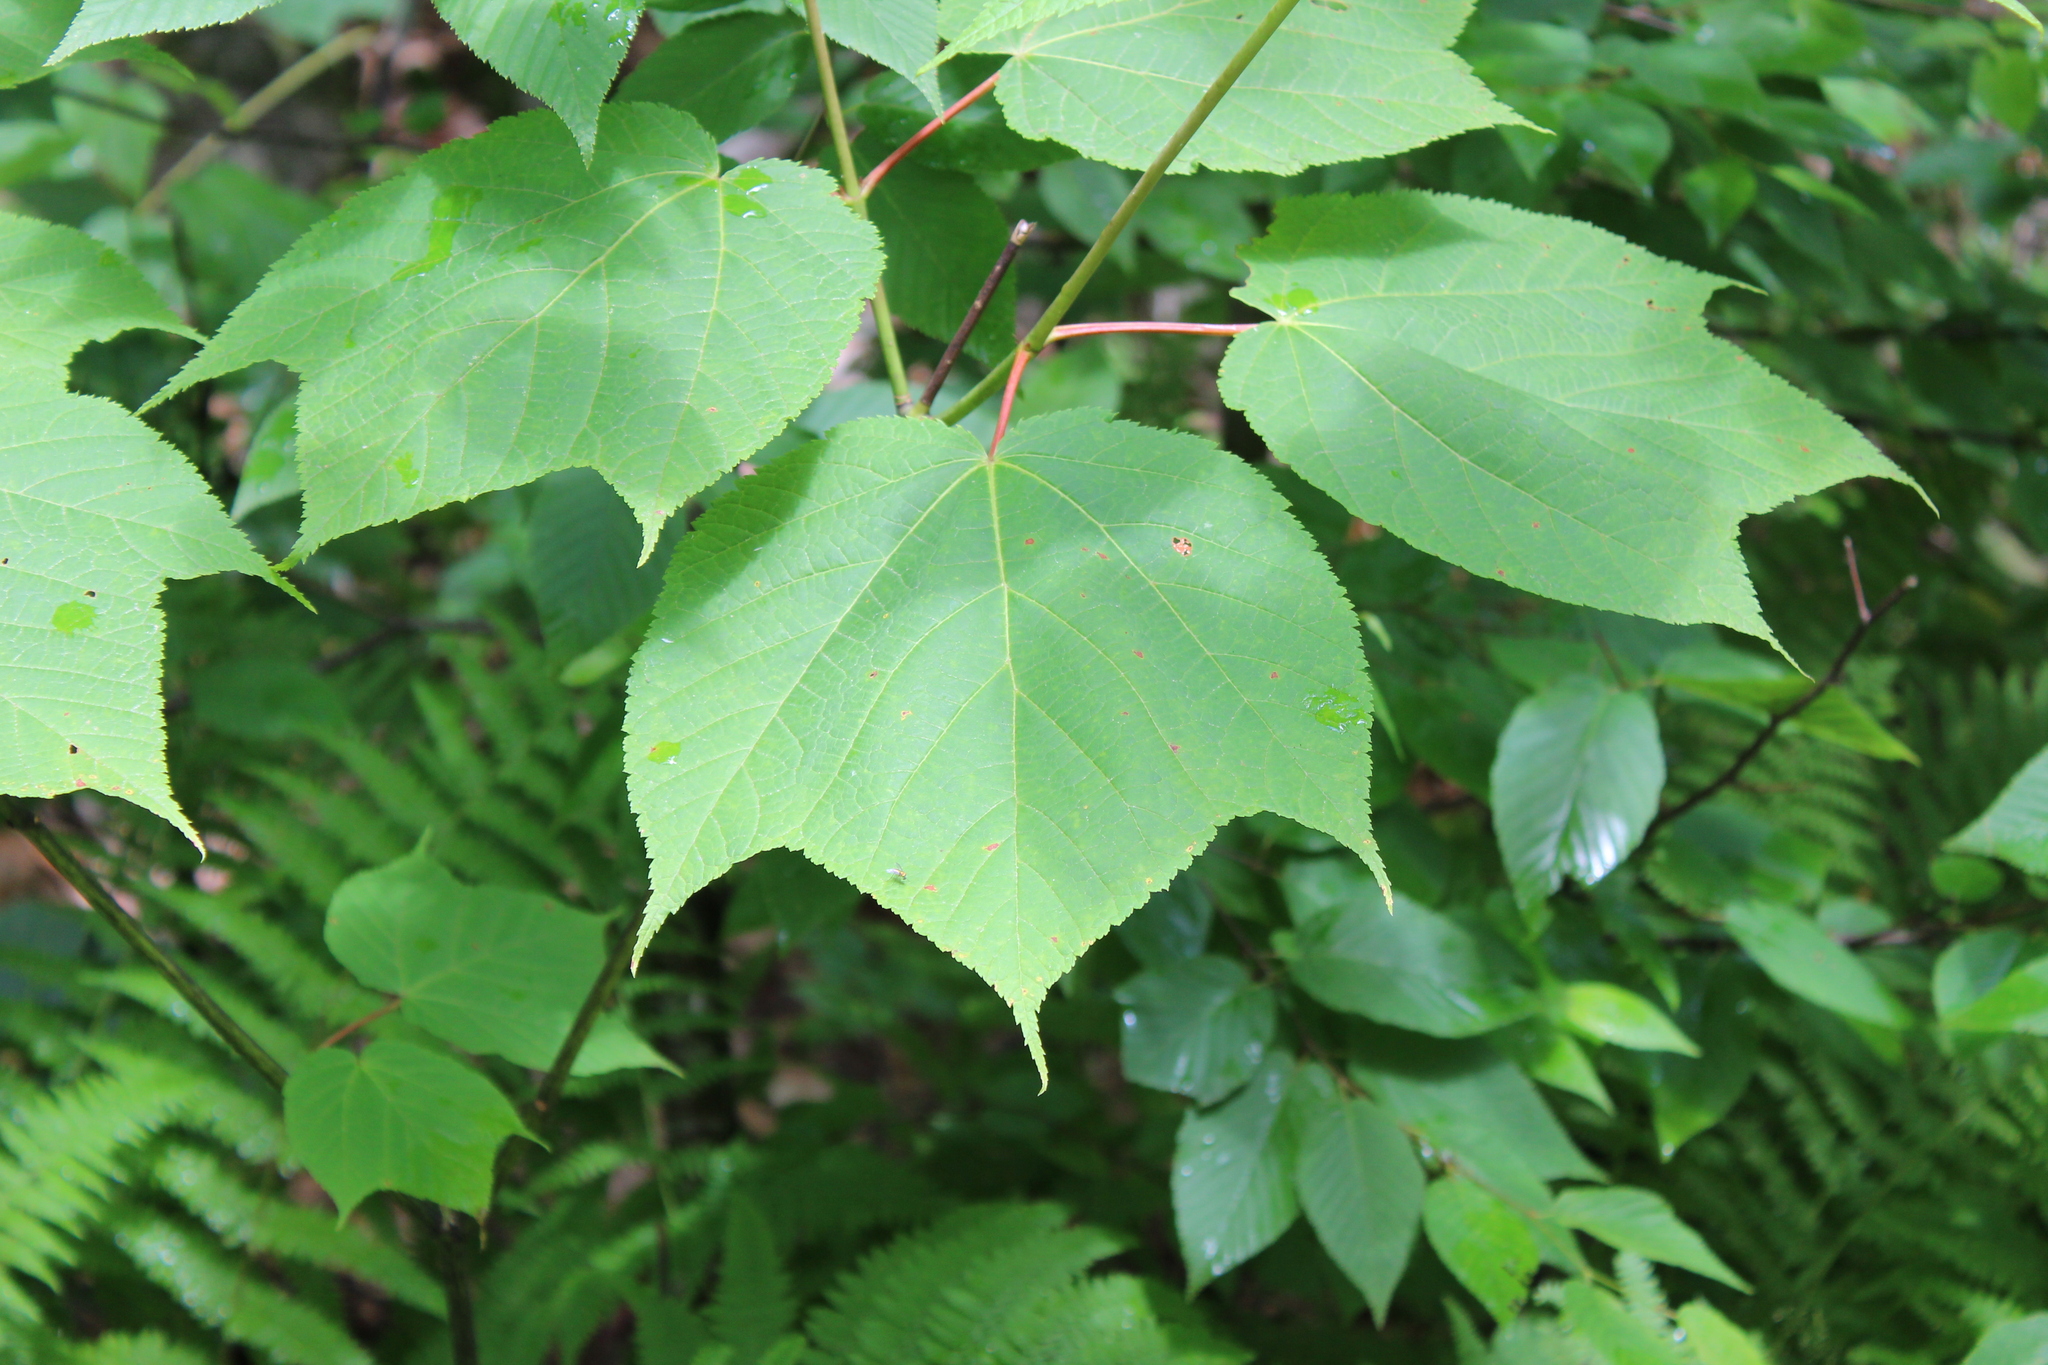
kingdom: Plantae
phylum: Tracheophyta
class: Magnoliopsida
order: Sapindales
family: Sapindaceae
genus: Acer
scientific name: Acer pensylvanicum
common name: Moosewood
